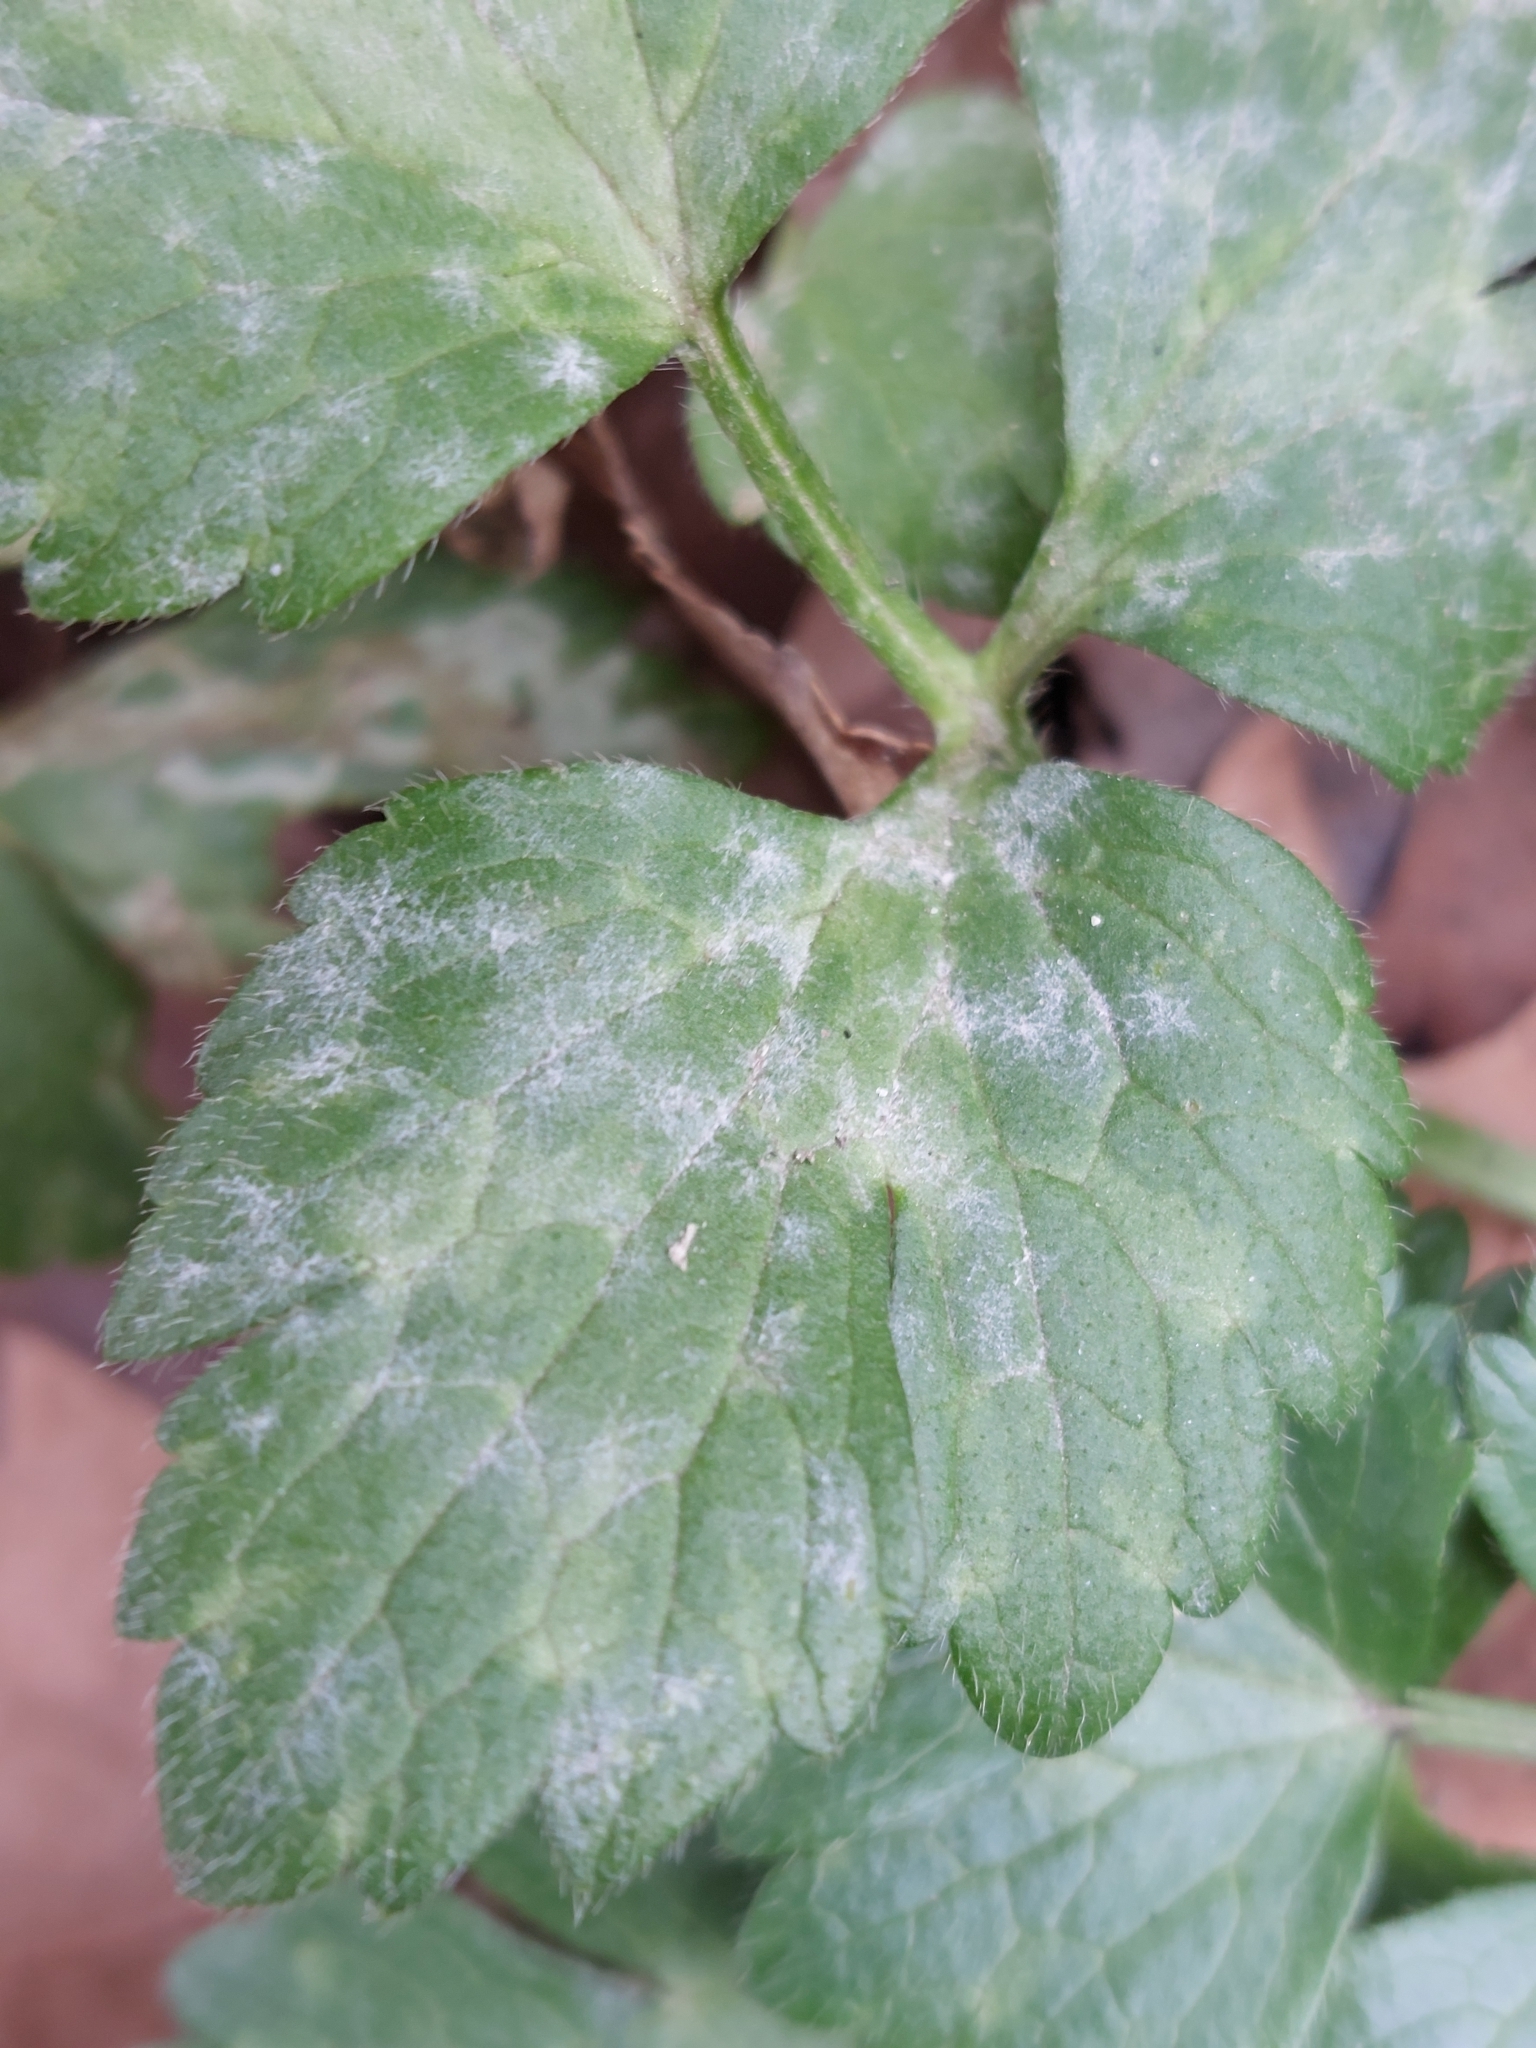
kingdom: Fungi
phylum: Ascomycota
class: Leotiomycetes
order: Helotiales
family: Erysiphaceae
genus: Erysiphe
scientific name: Erysiphe aquilegiae
